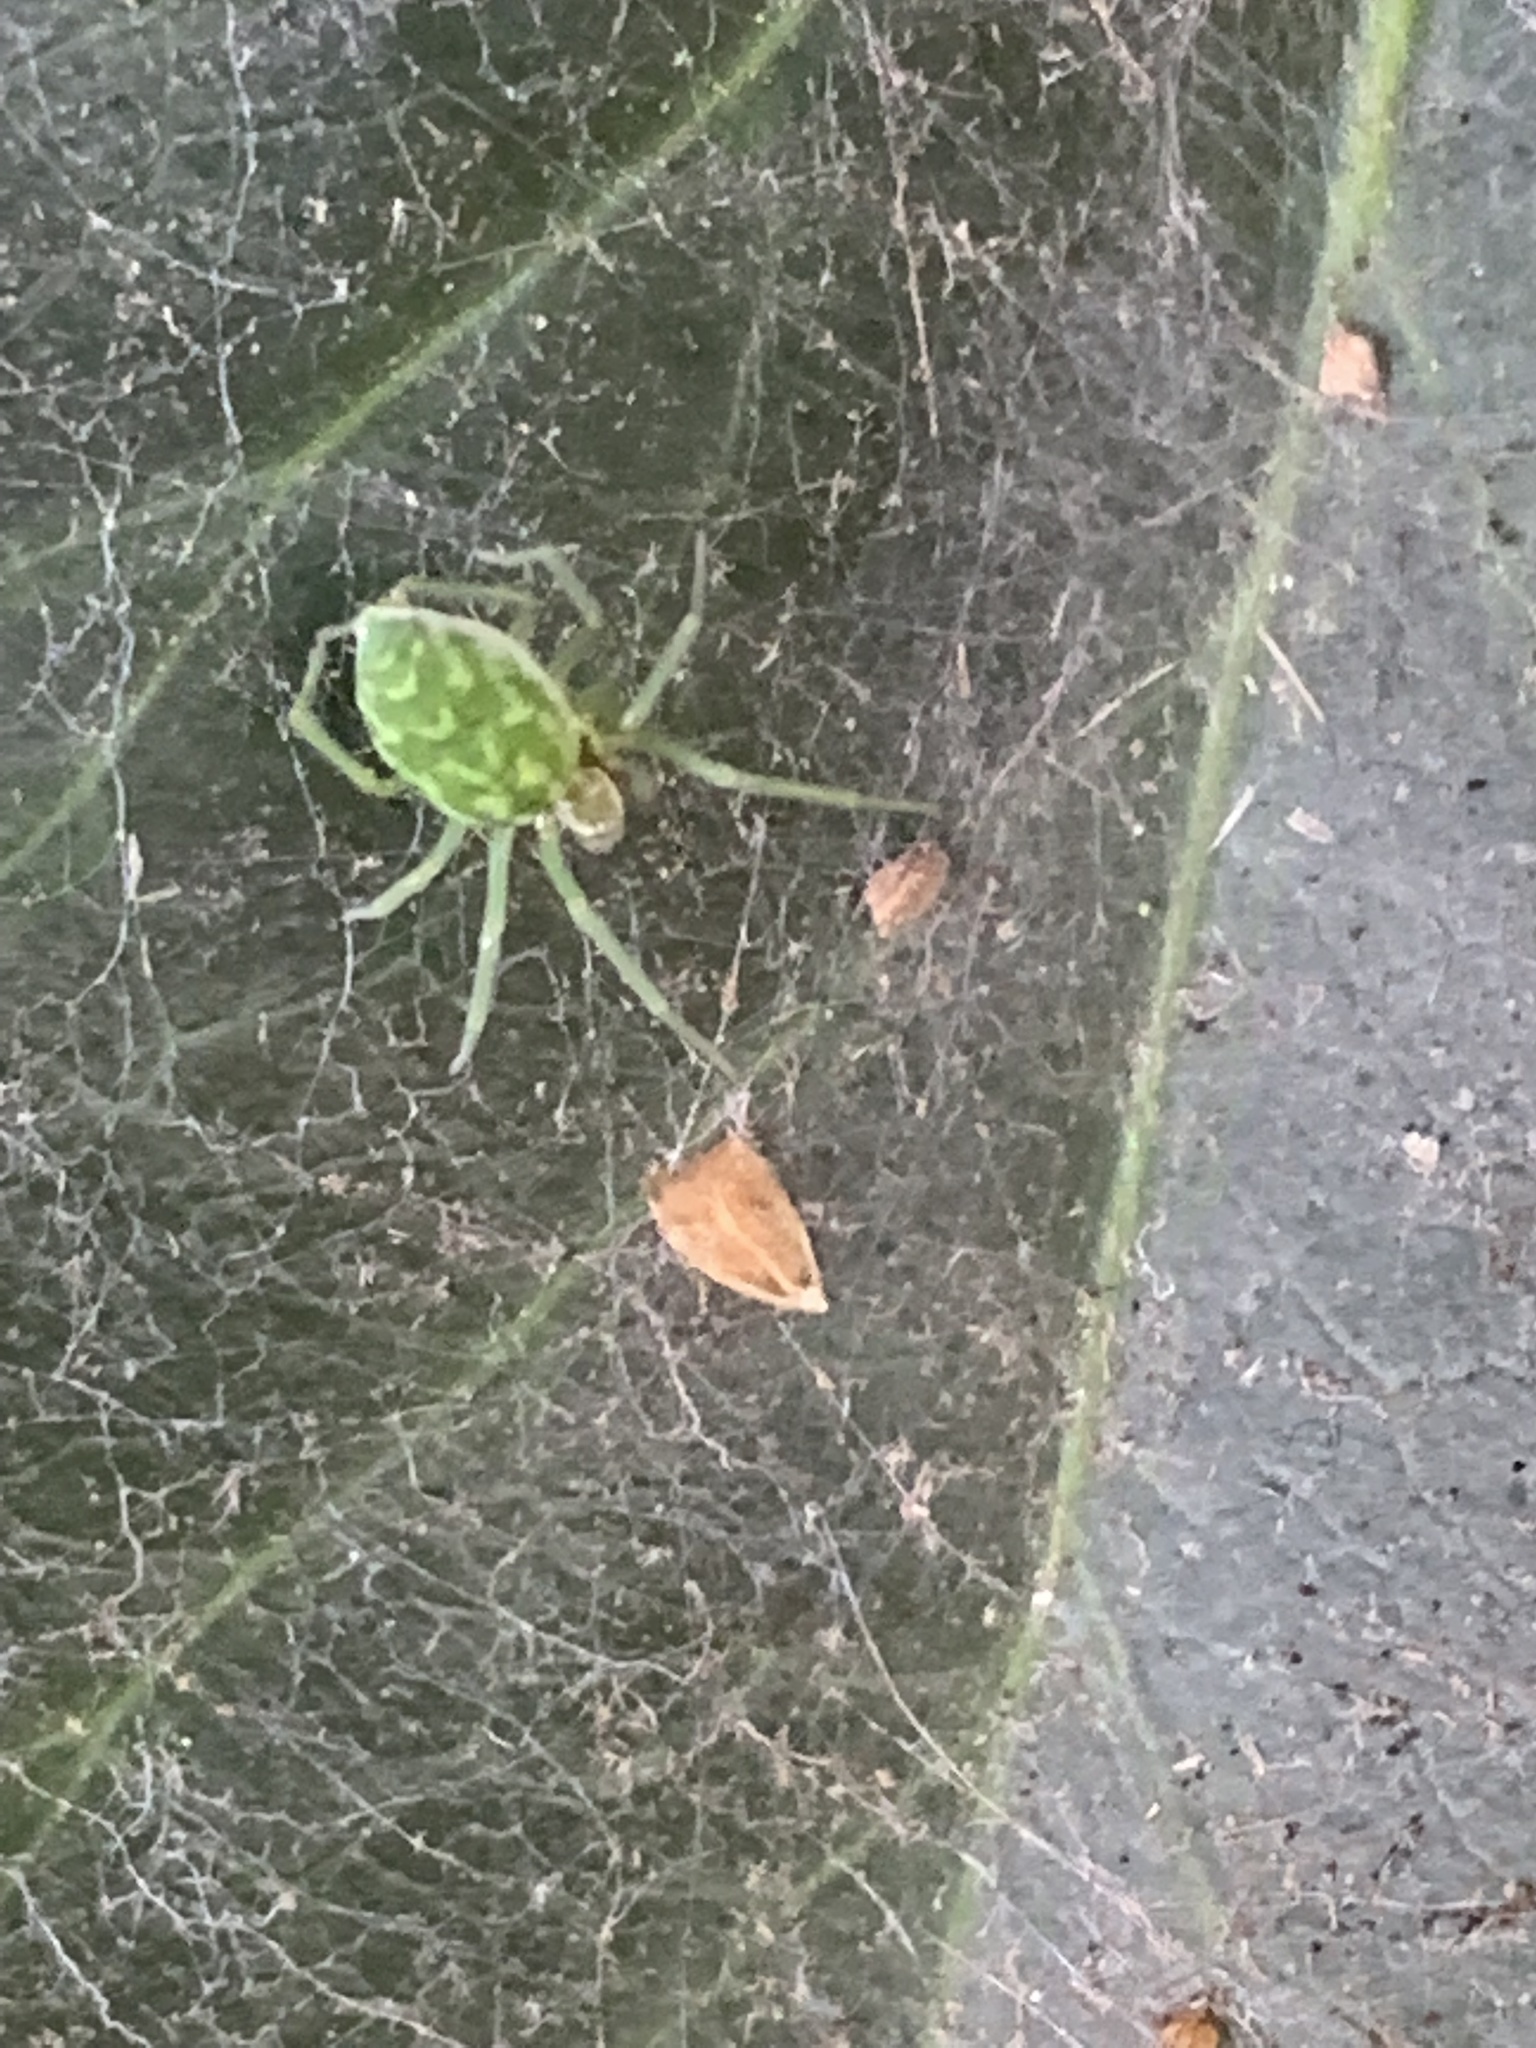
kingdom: Animalia
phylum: Arthropoda
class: Arachnida
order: Araneae
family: Dictynidae
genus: Nigma
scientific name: Nigma walckenaeri
